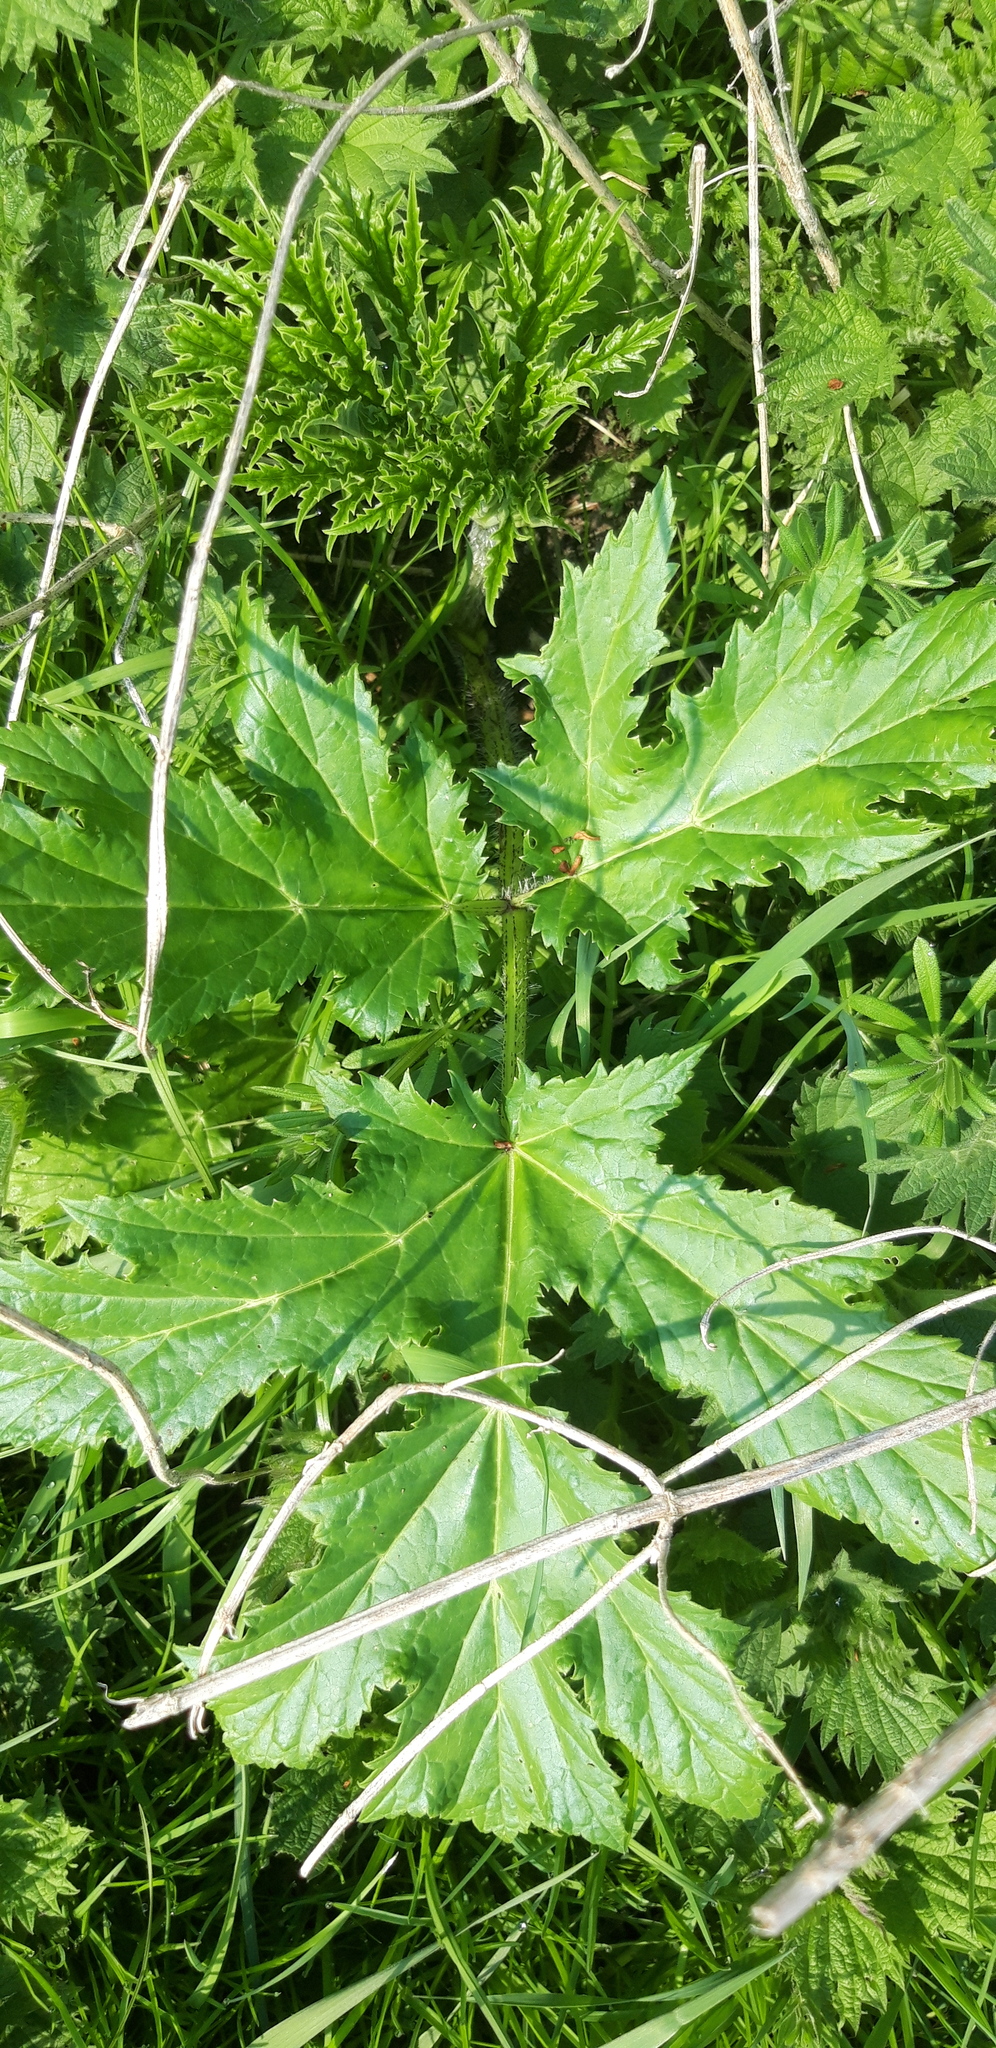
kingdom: Plantae
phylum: Tracheophyta
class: Magnoliopsida
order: Apiales
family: Apiaceae
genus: Heracleum
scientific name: Heracleum mantegazzianum
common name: Giant hogweed
